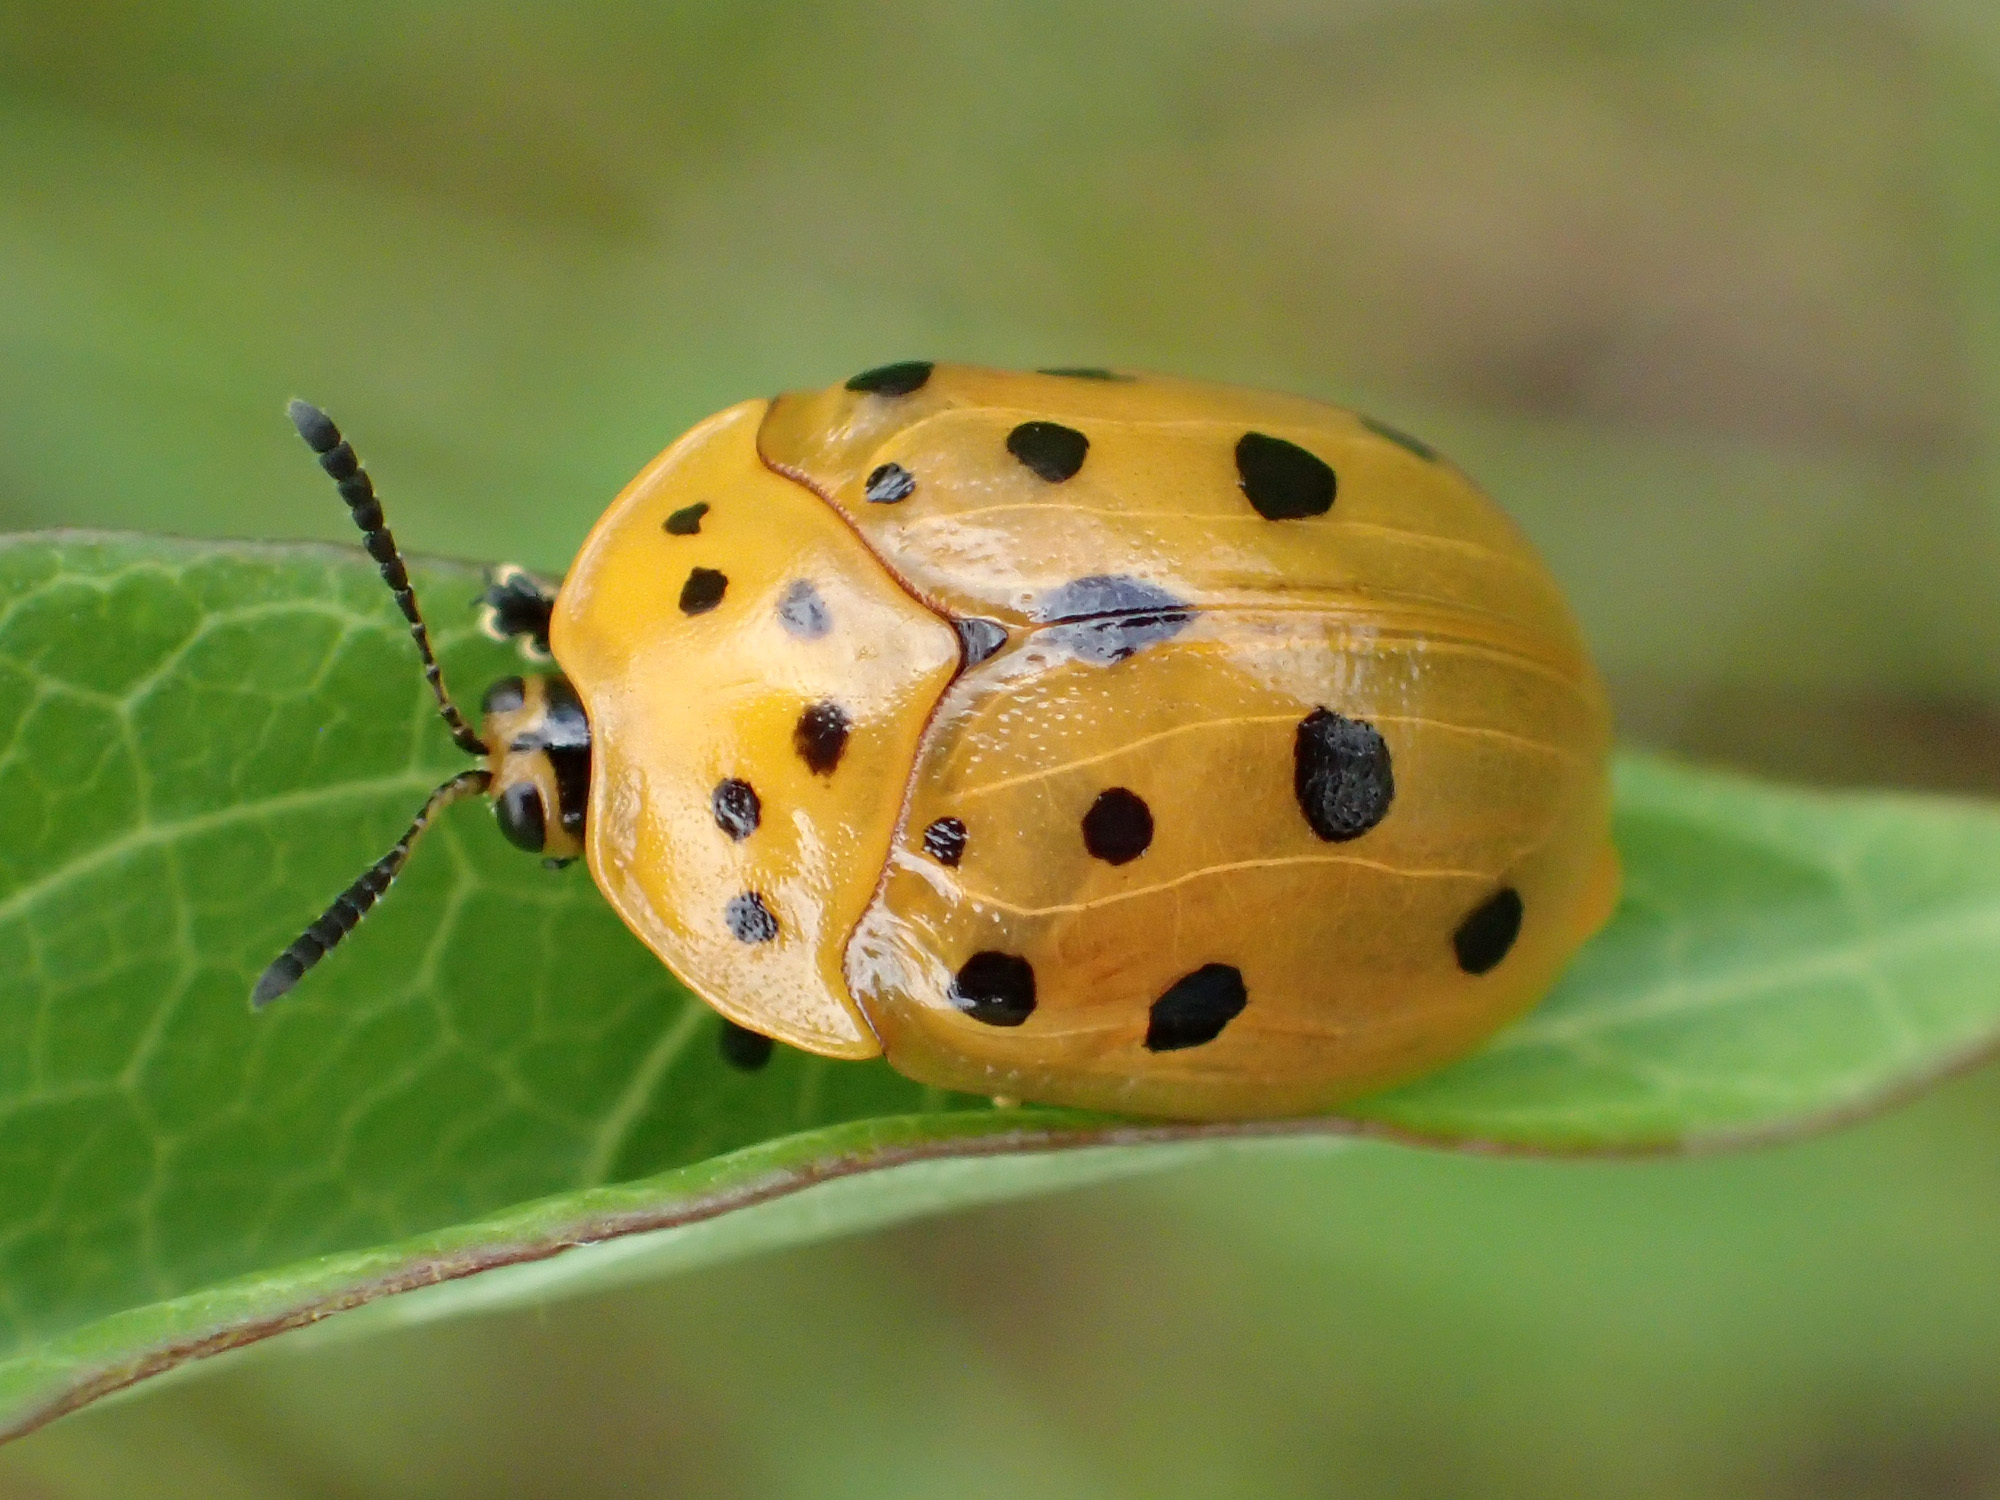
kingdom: Animalia
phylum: Arthropoda
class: Insecta
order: Coleoptera
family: Chrysomelidae
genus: Chelymorpha
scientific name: Chelymorpha cassidea
